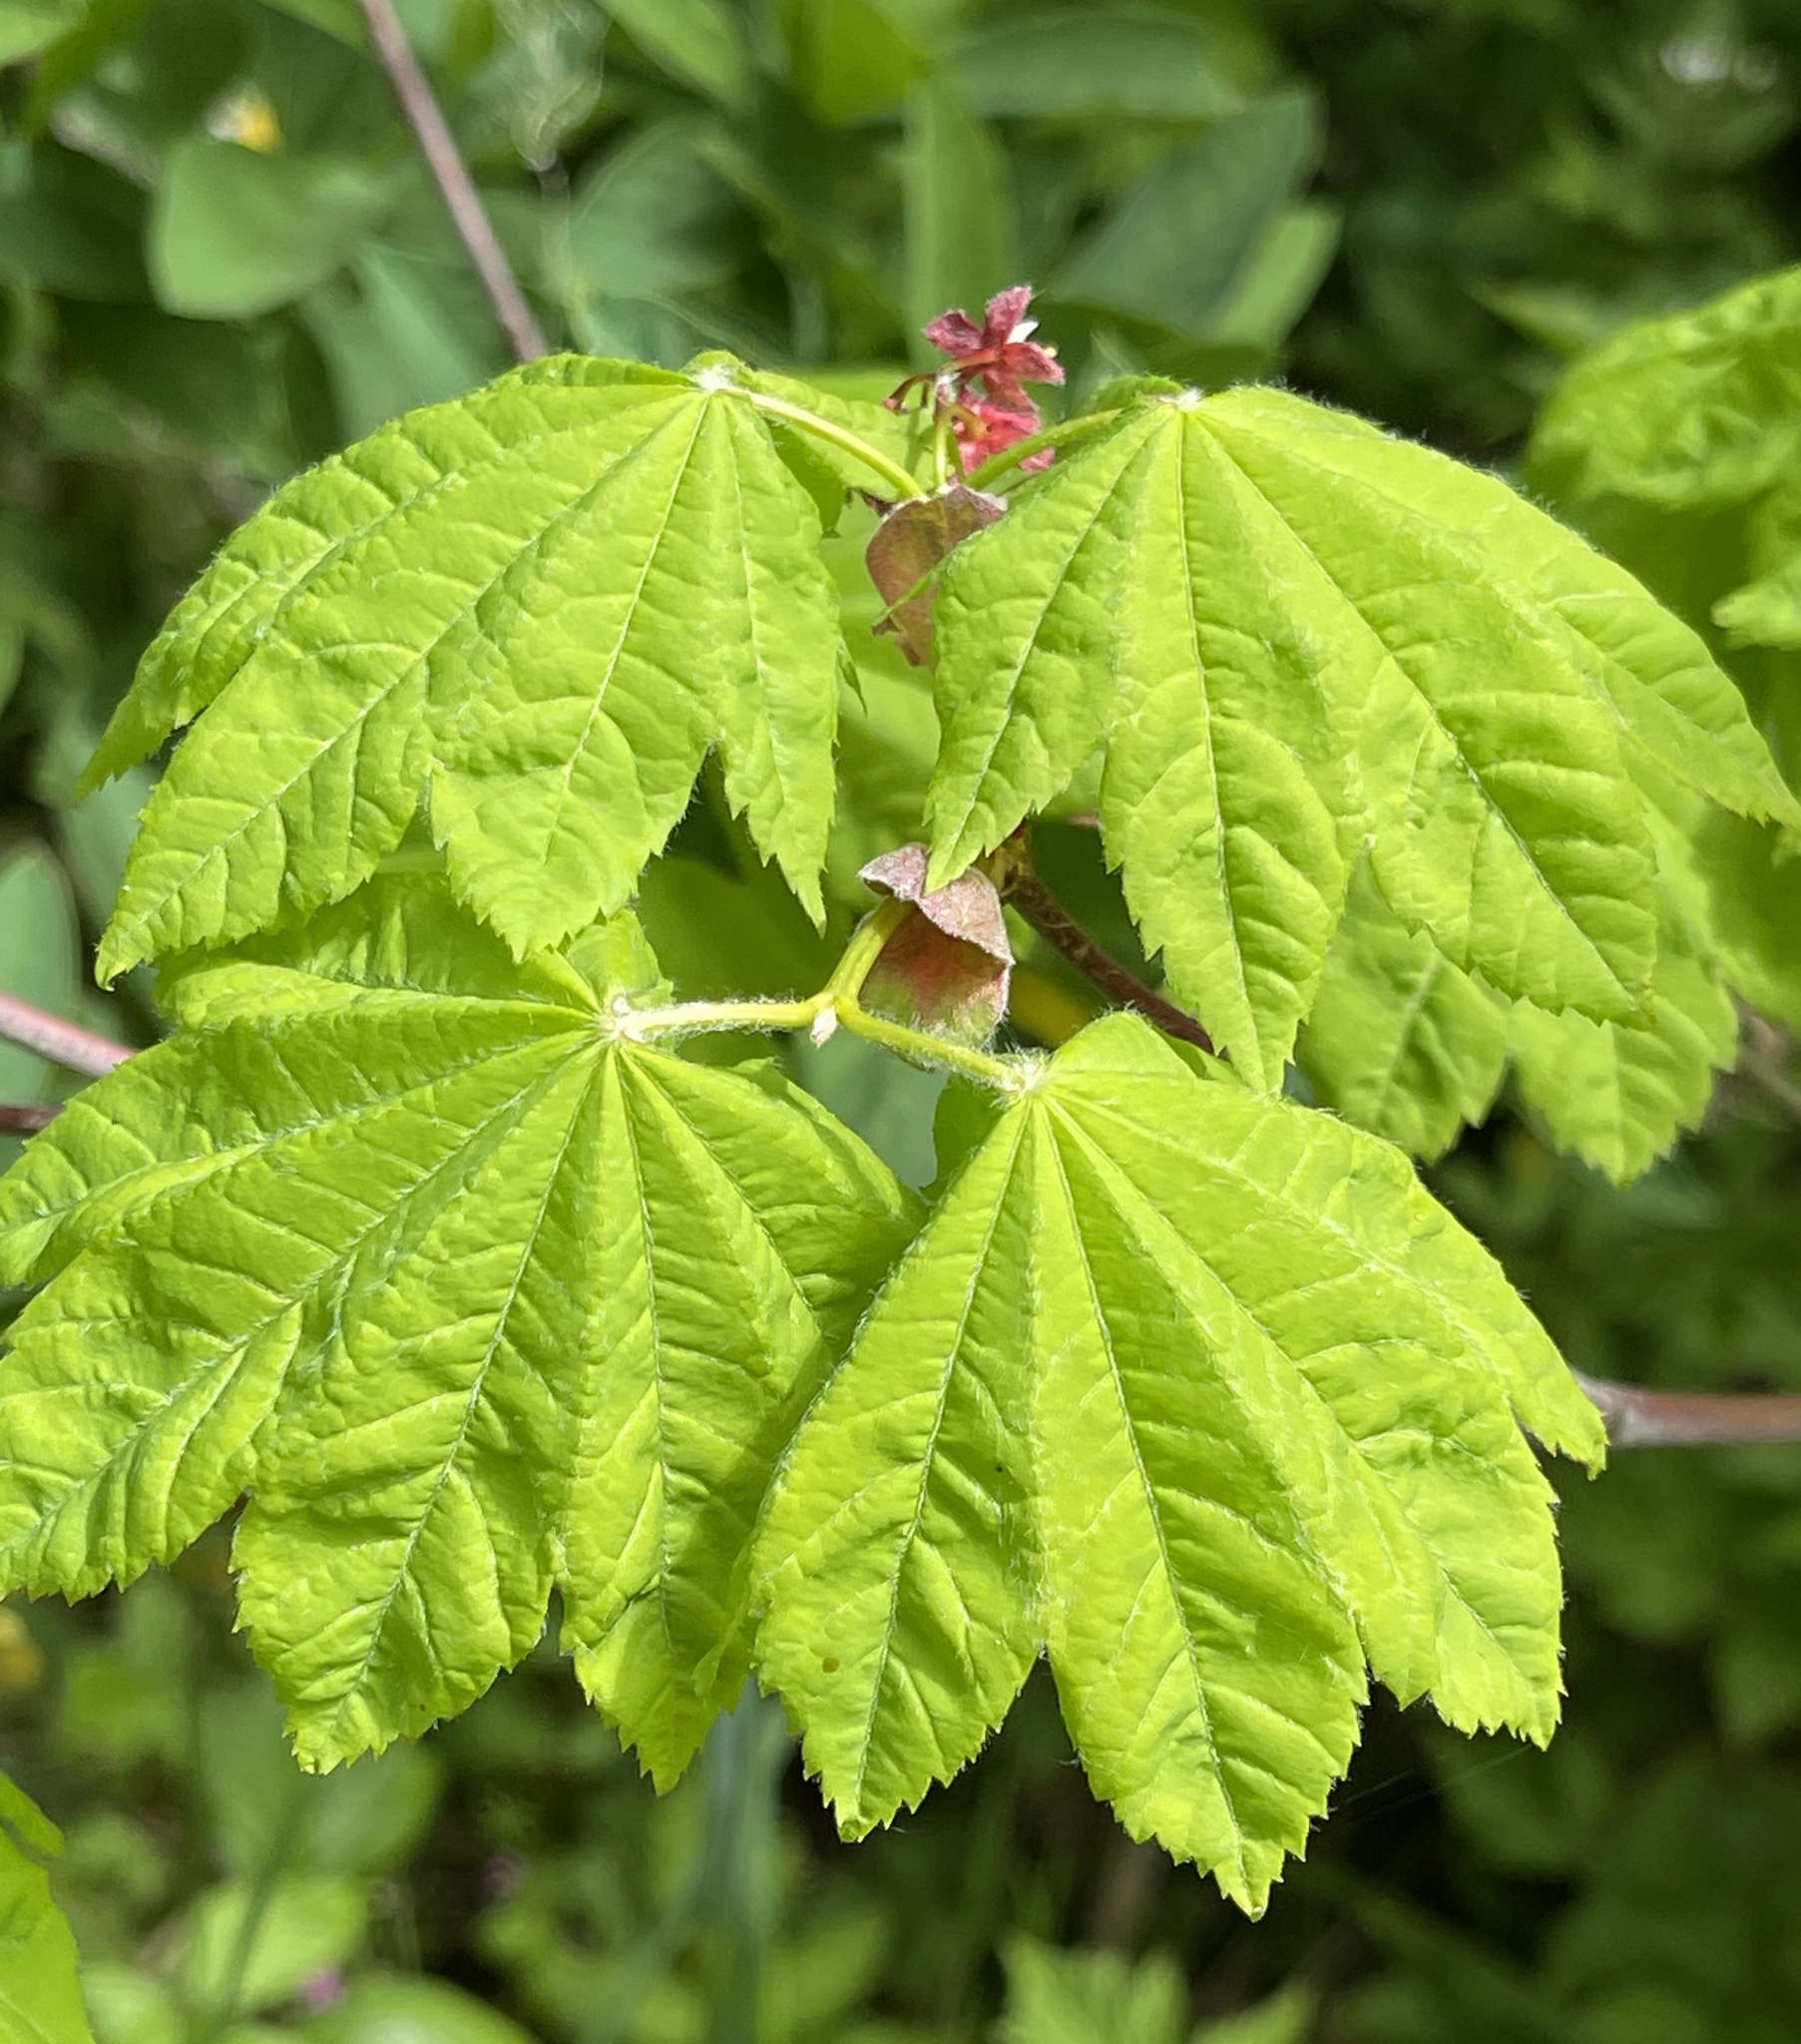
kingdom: Plantae
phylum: Tracheophyta
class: Magnoliopsida
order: Sapindales
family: Sapindaceae
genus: Acer
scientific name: Acer circinatum
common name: Vine maple
